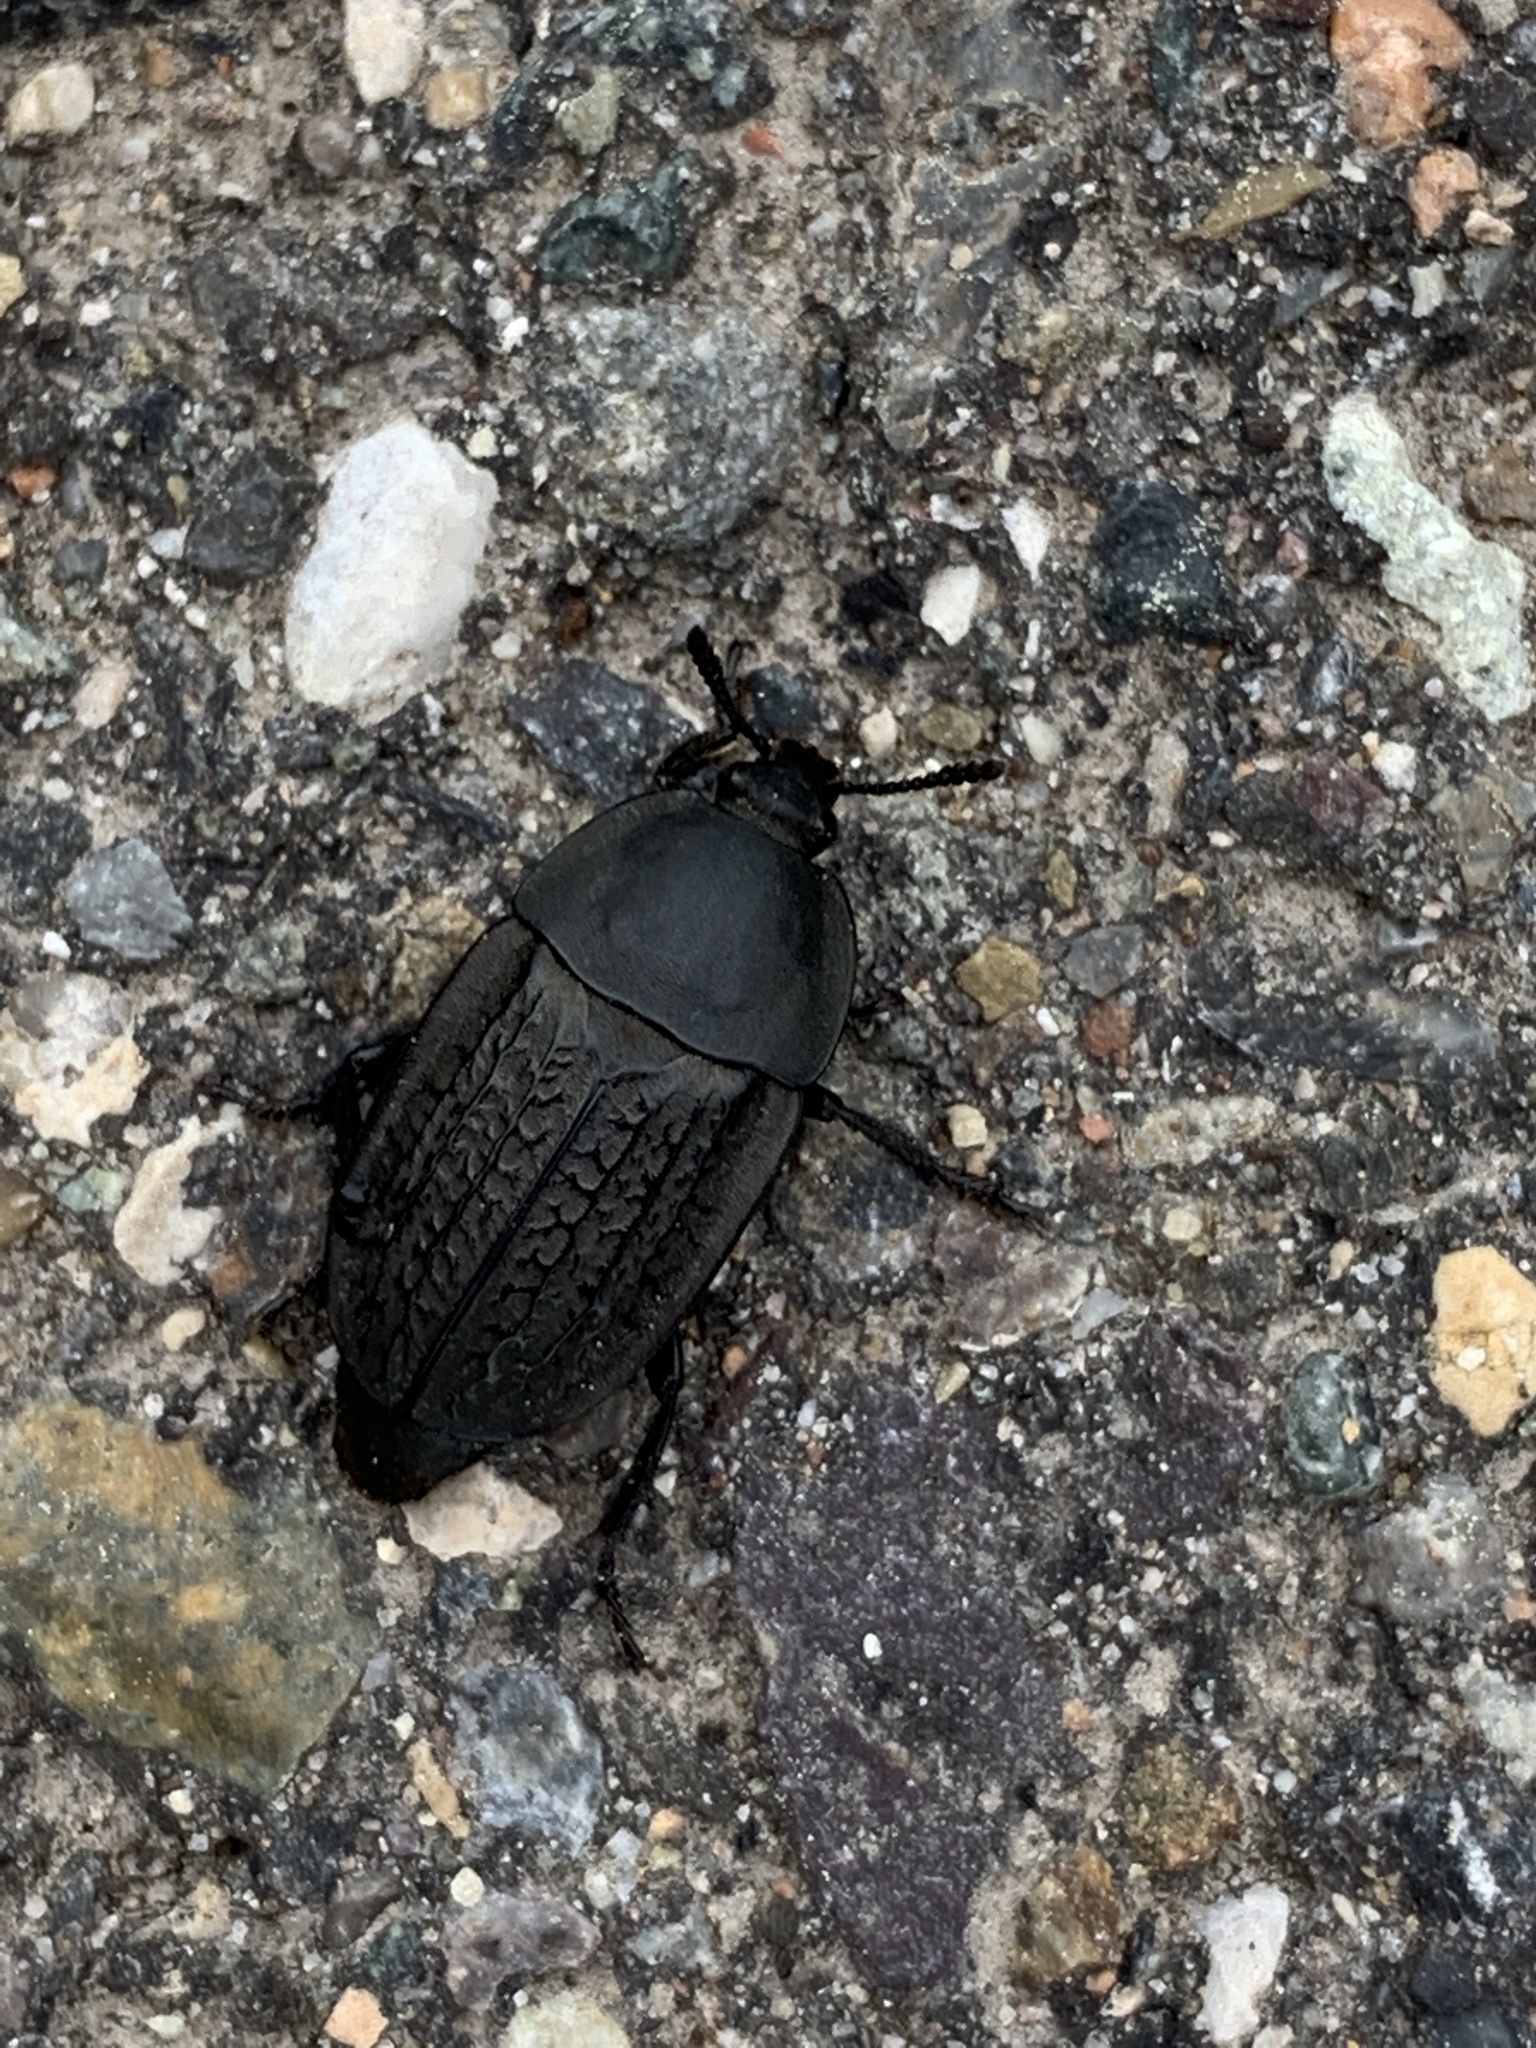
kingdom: Animalia
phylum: Arthropoda
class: Insecta
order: Coleoptera
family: Staphylinidae
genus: Heterosilpha
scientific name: Heterosilpha ramosa
